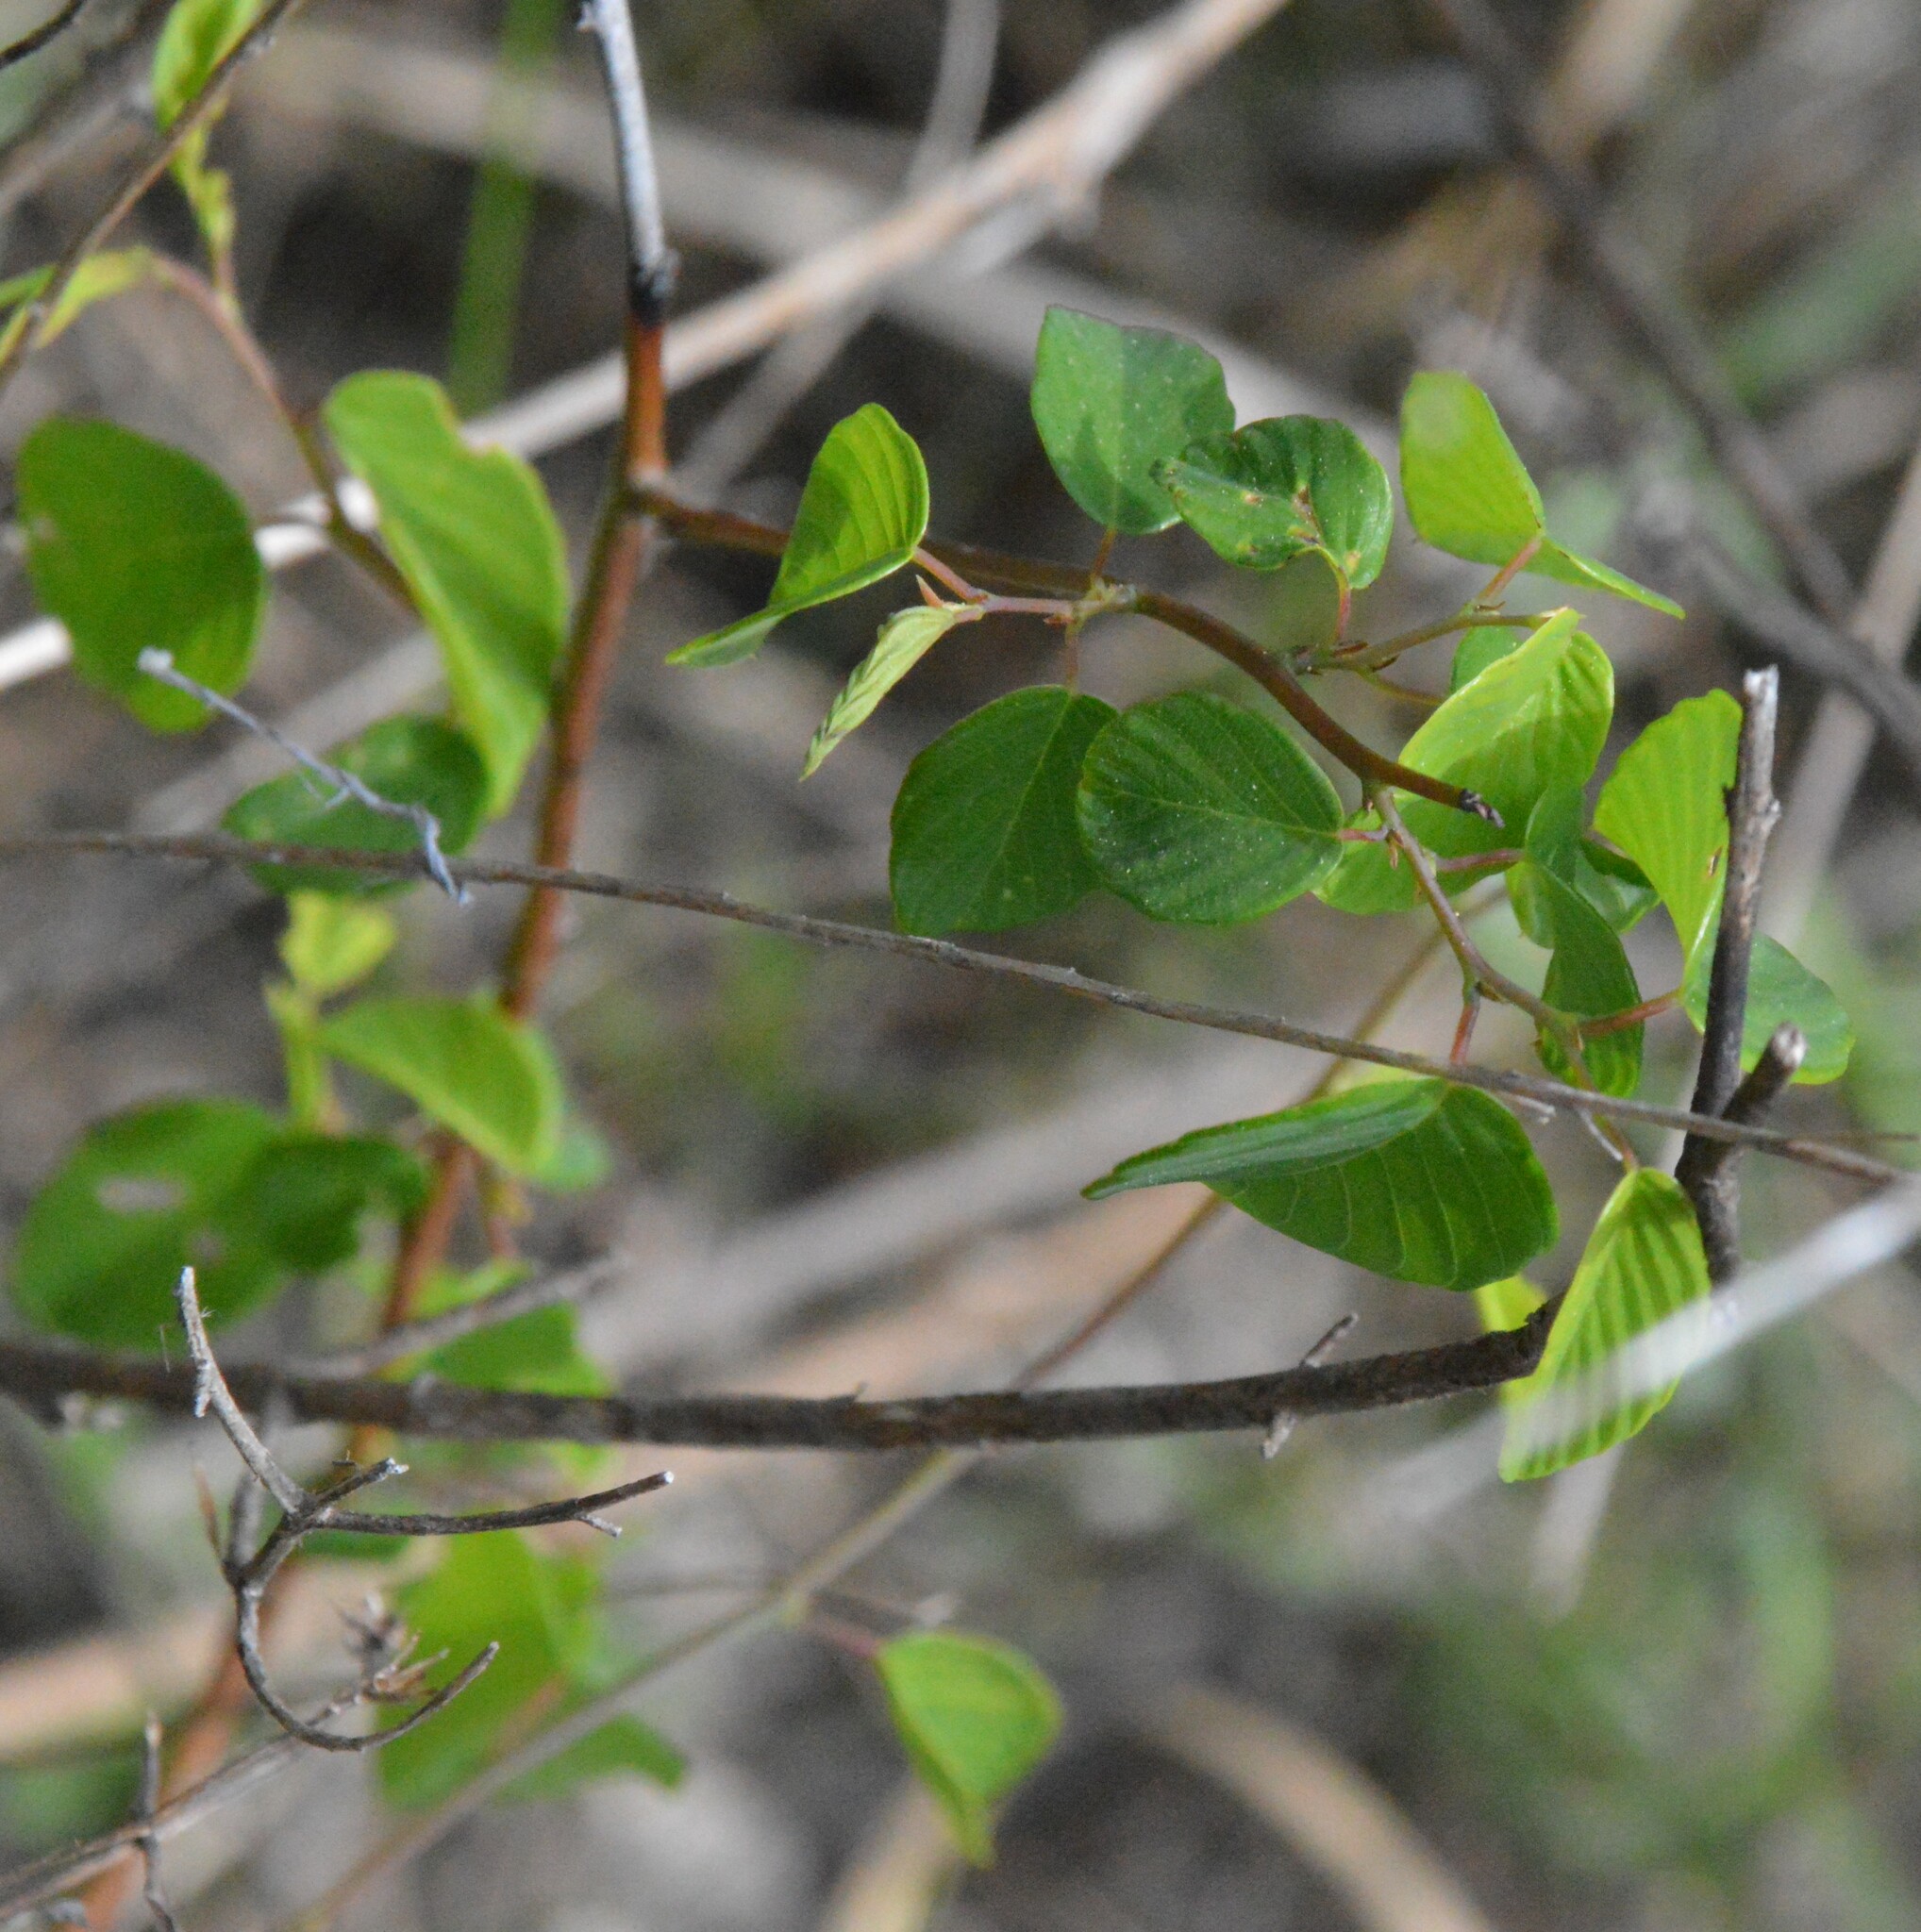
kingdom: Plantae
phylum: Tracheophyta
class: Magnoliopsida
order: Rosales
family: Rhamnaceae
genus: Berchemia
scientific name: Berchemia scandens
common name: Supplejack
